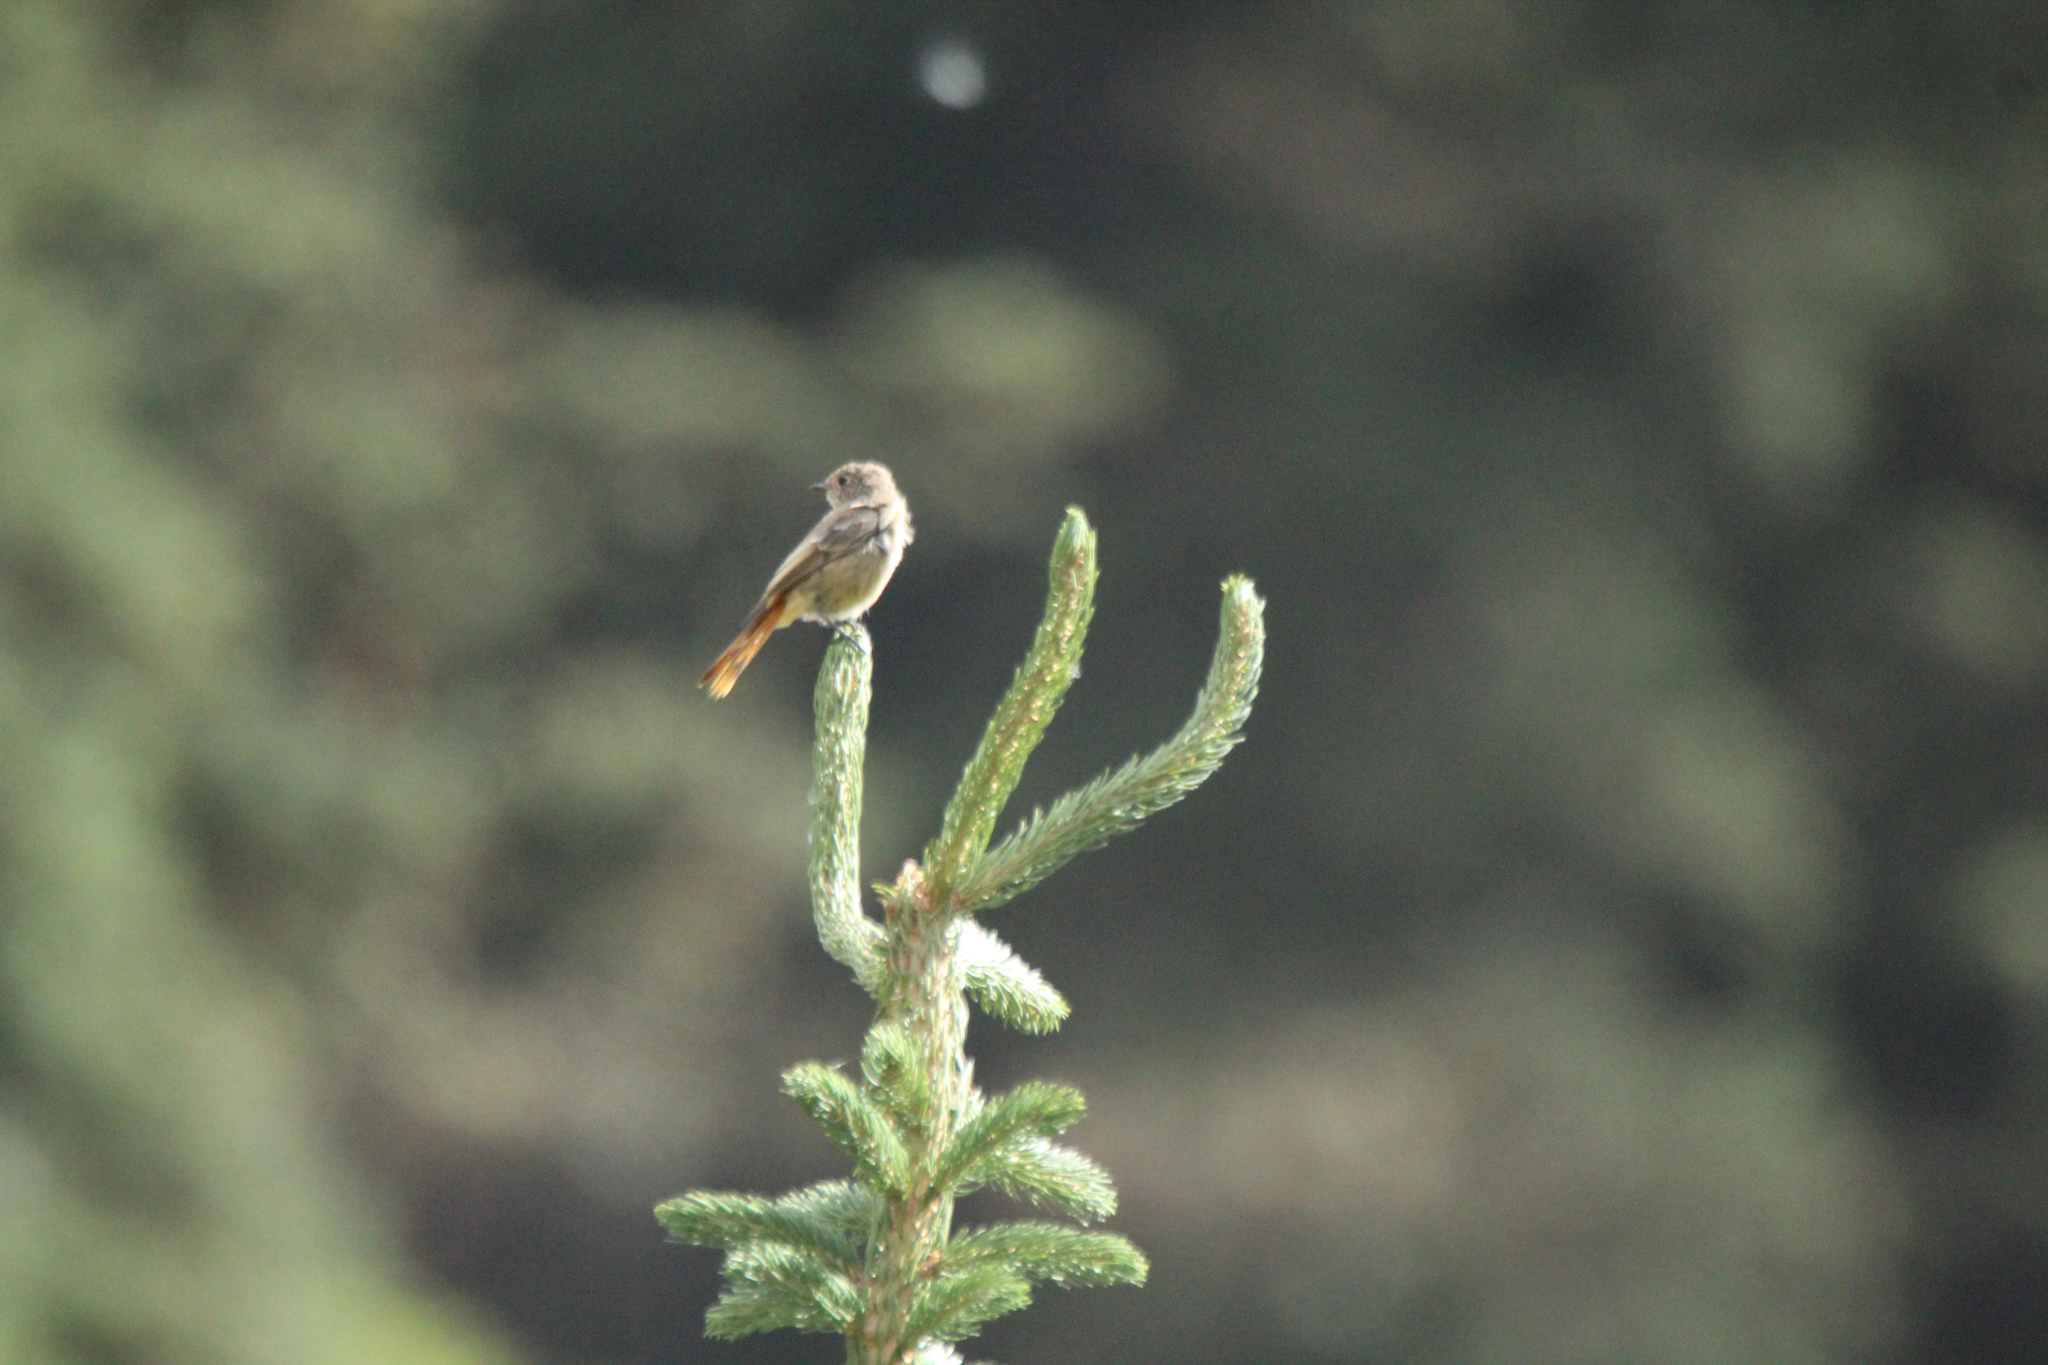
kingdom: Animalia
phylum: Chordata
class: Aves
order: Passeriformes
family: Muscicapidae
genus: Phoenicurus
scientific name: Phoenicurus erythronotus
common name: Eversmann's redstart
